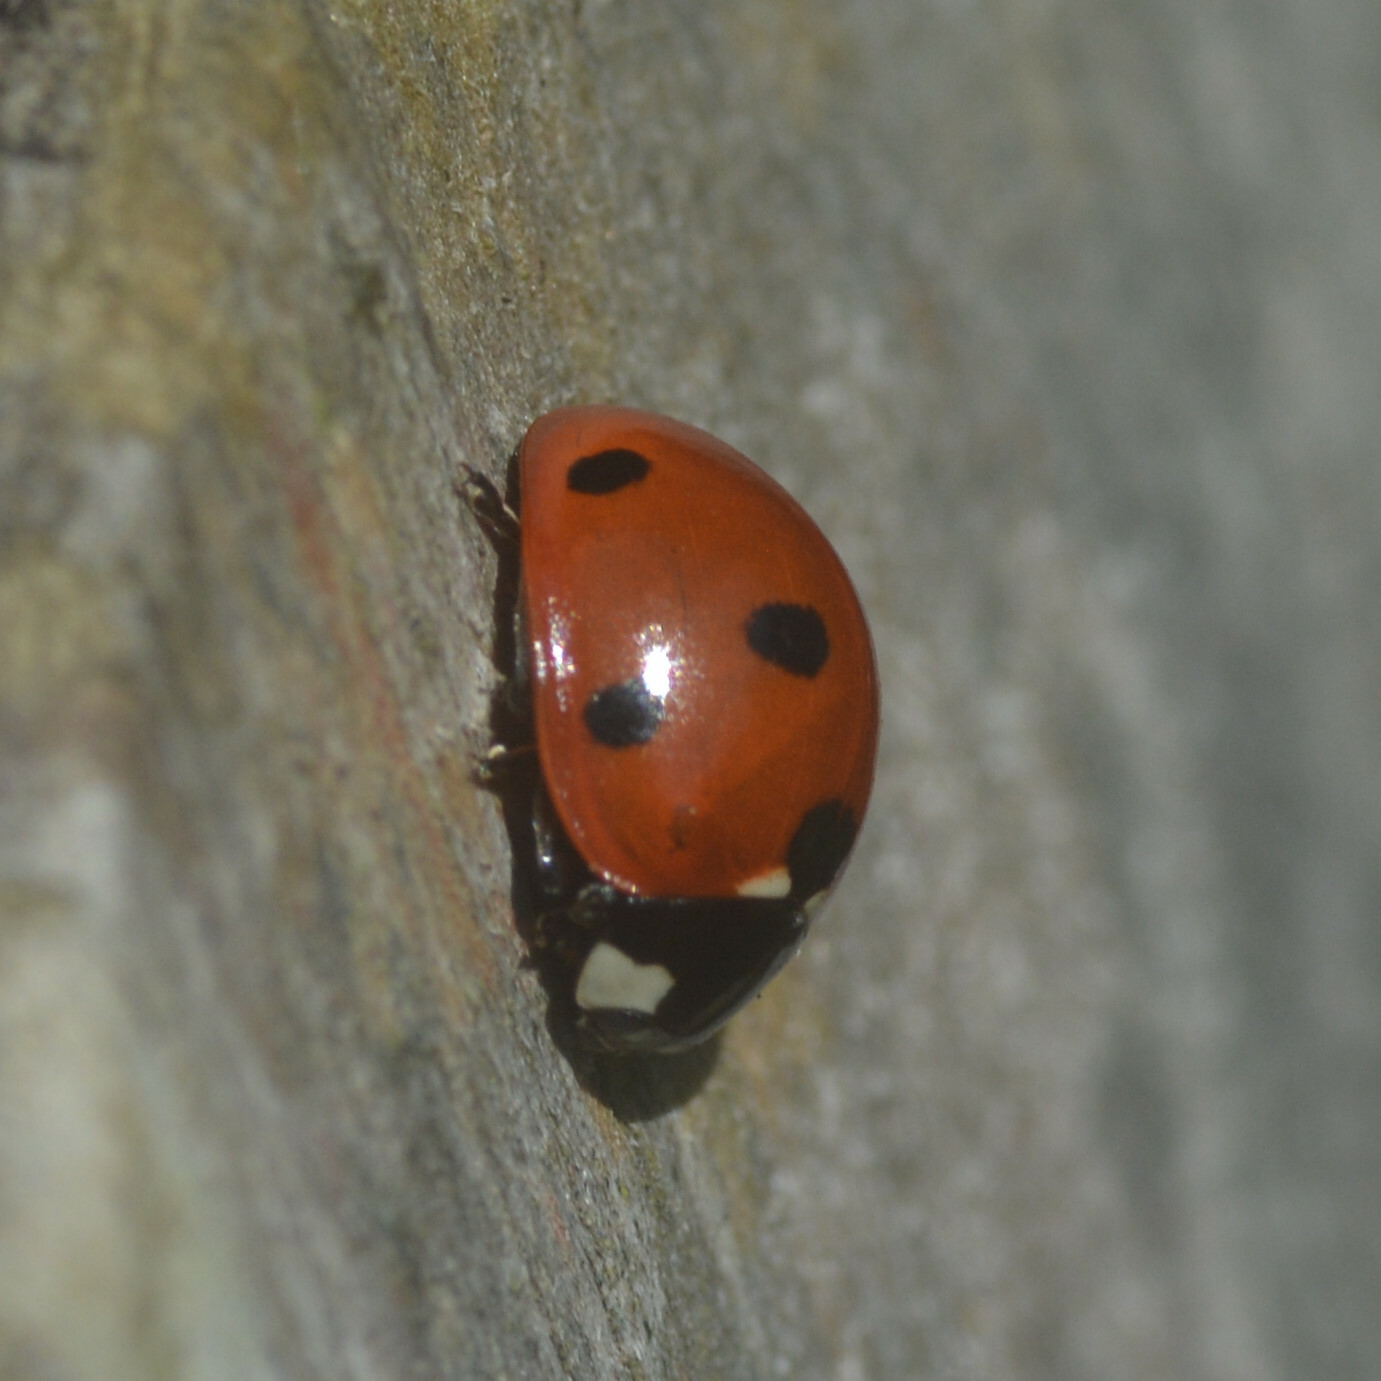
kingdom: Animalia
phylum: Arthropoda
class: Insecta
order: Coleoptera
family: Coccinellidae
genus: Coccinella
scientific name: Coccinella septempunctata
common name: Sevenspotted lady beetle
